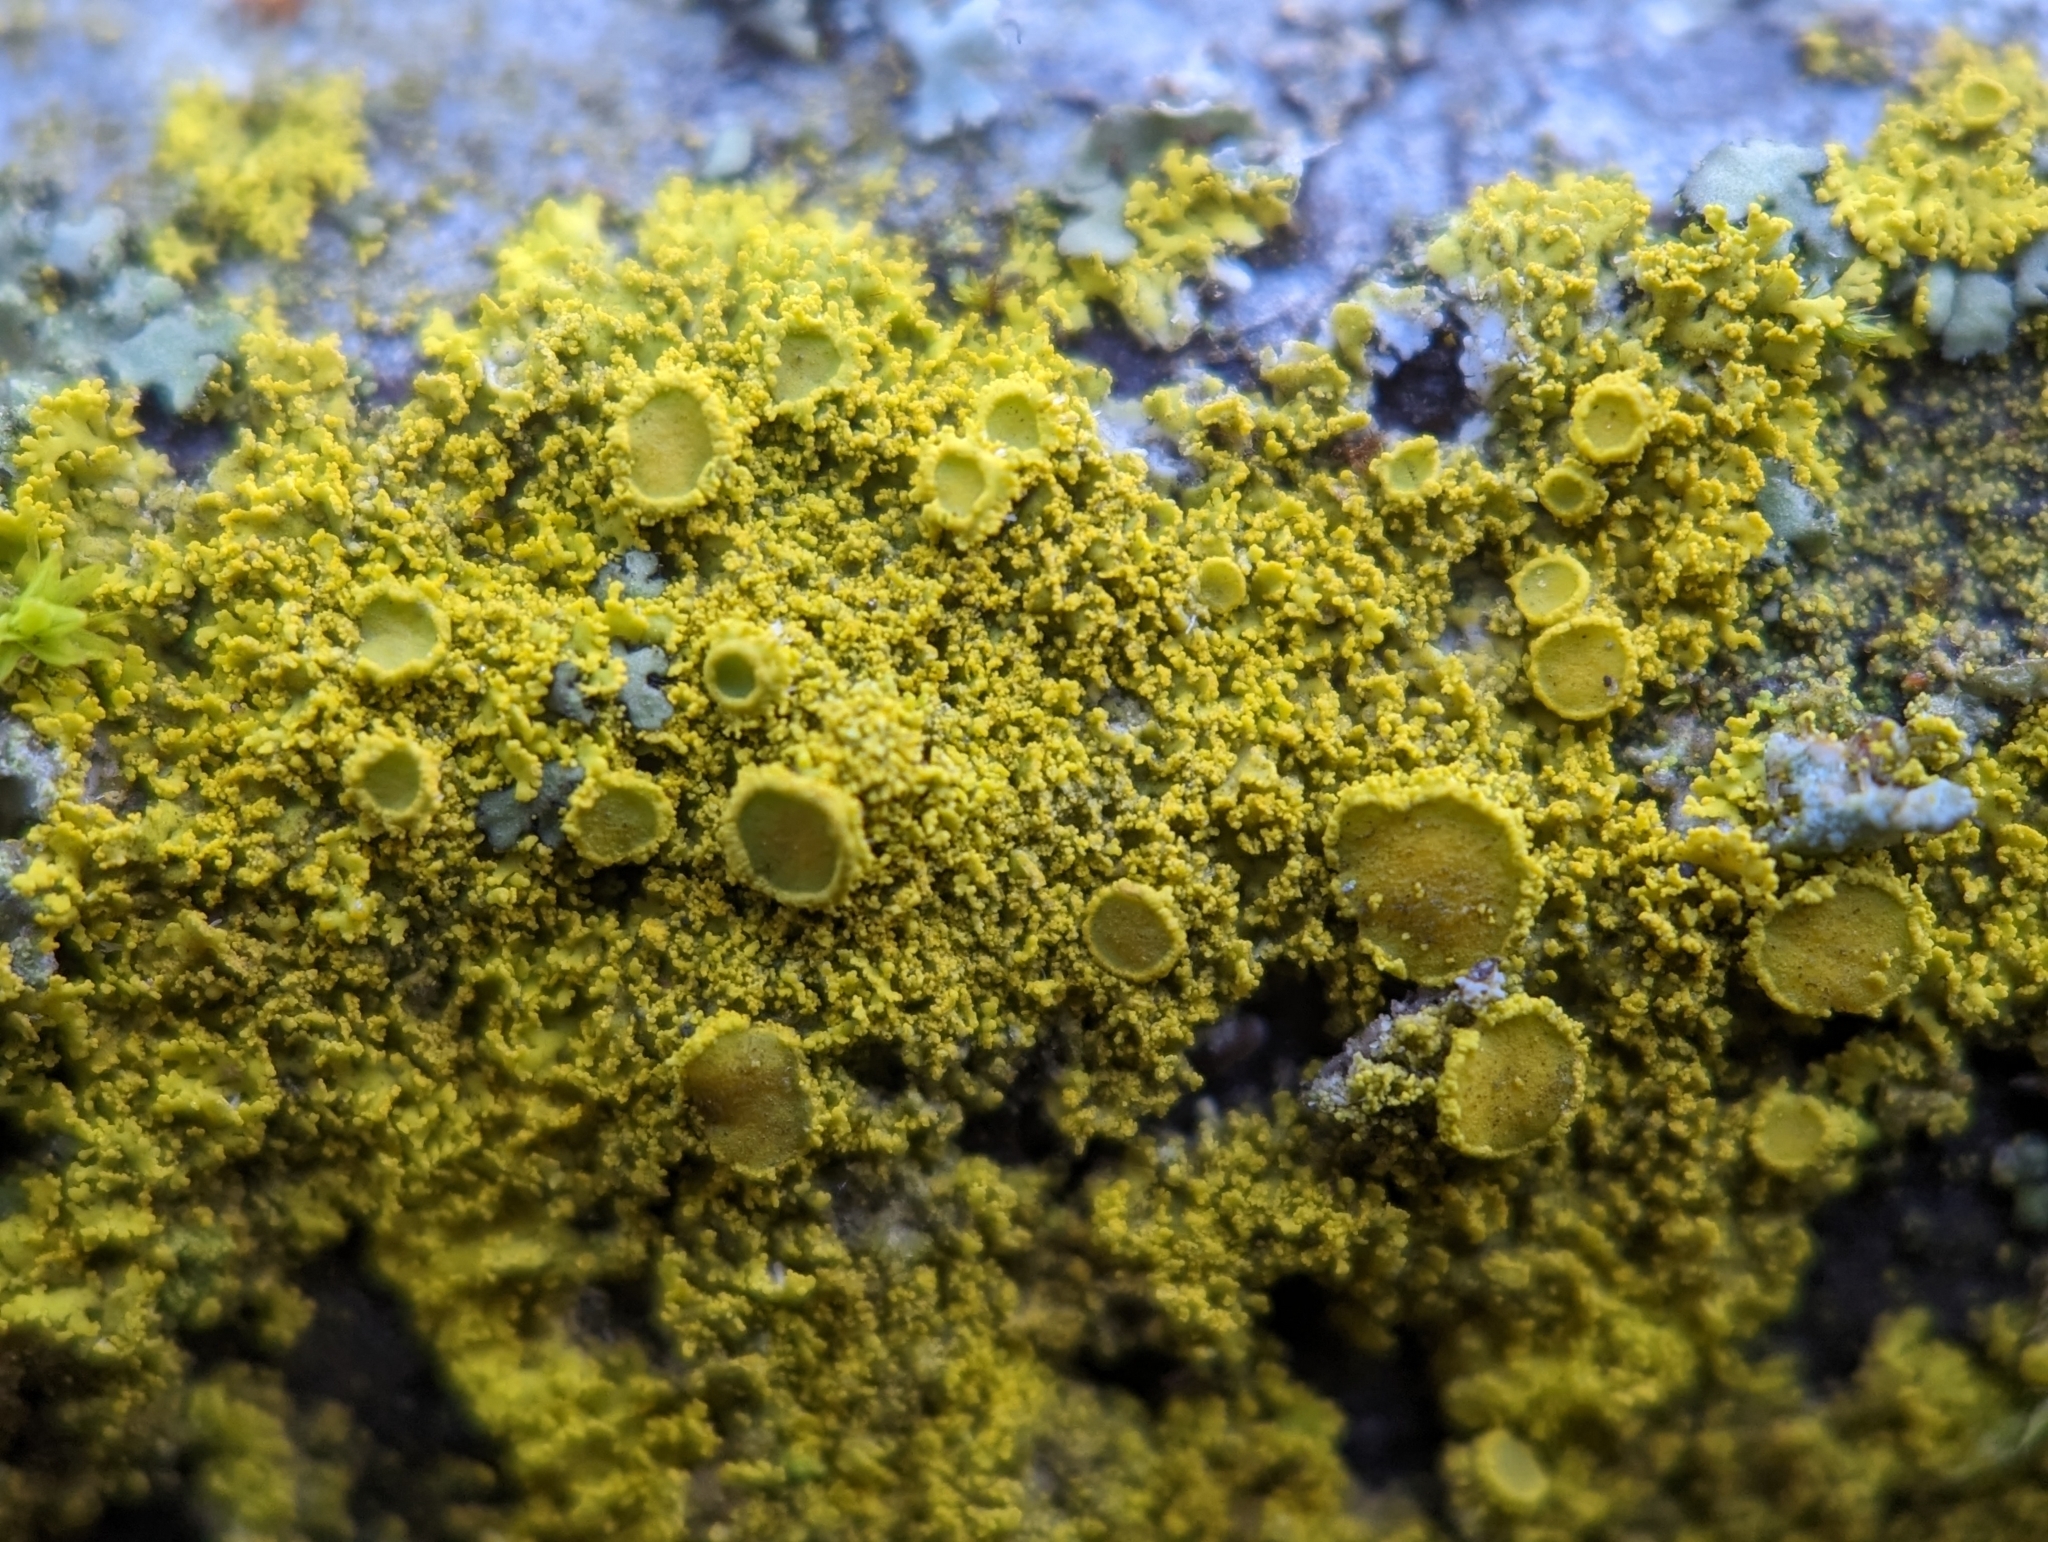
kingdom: Fungi
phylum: Ascomycota
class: Candelariomycetes
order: Candelariales
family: Candelariaceae
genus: Candelaria
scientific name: Candelaria concolor
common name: Candleflame lichen
